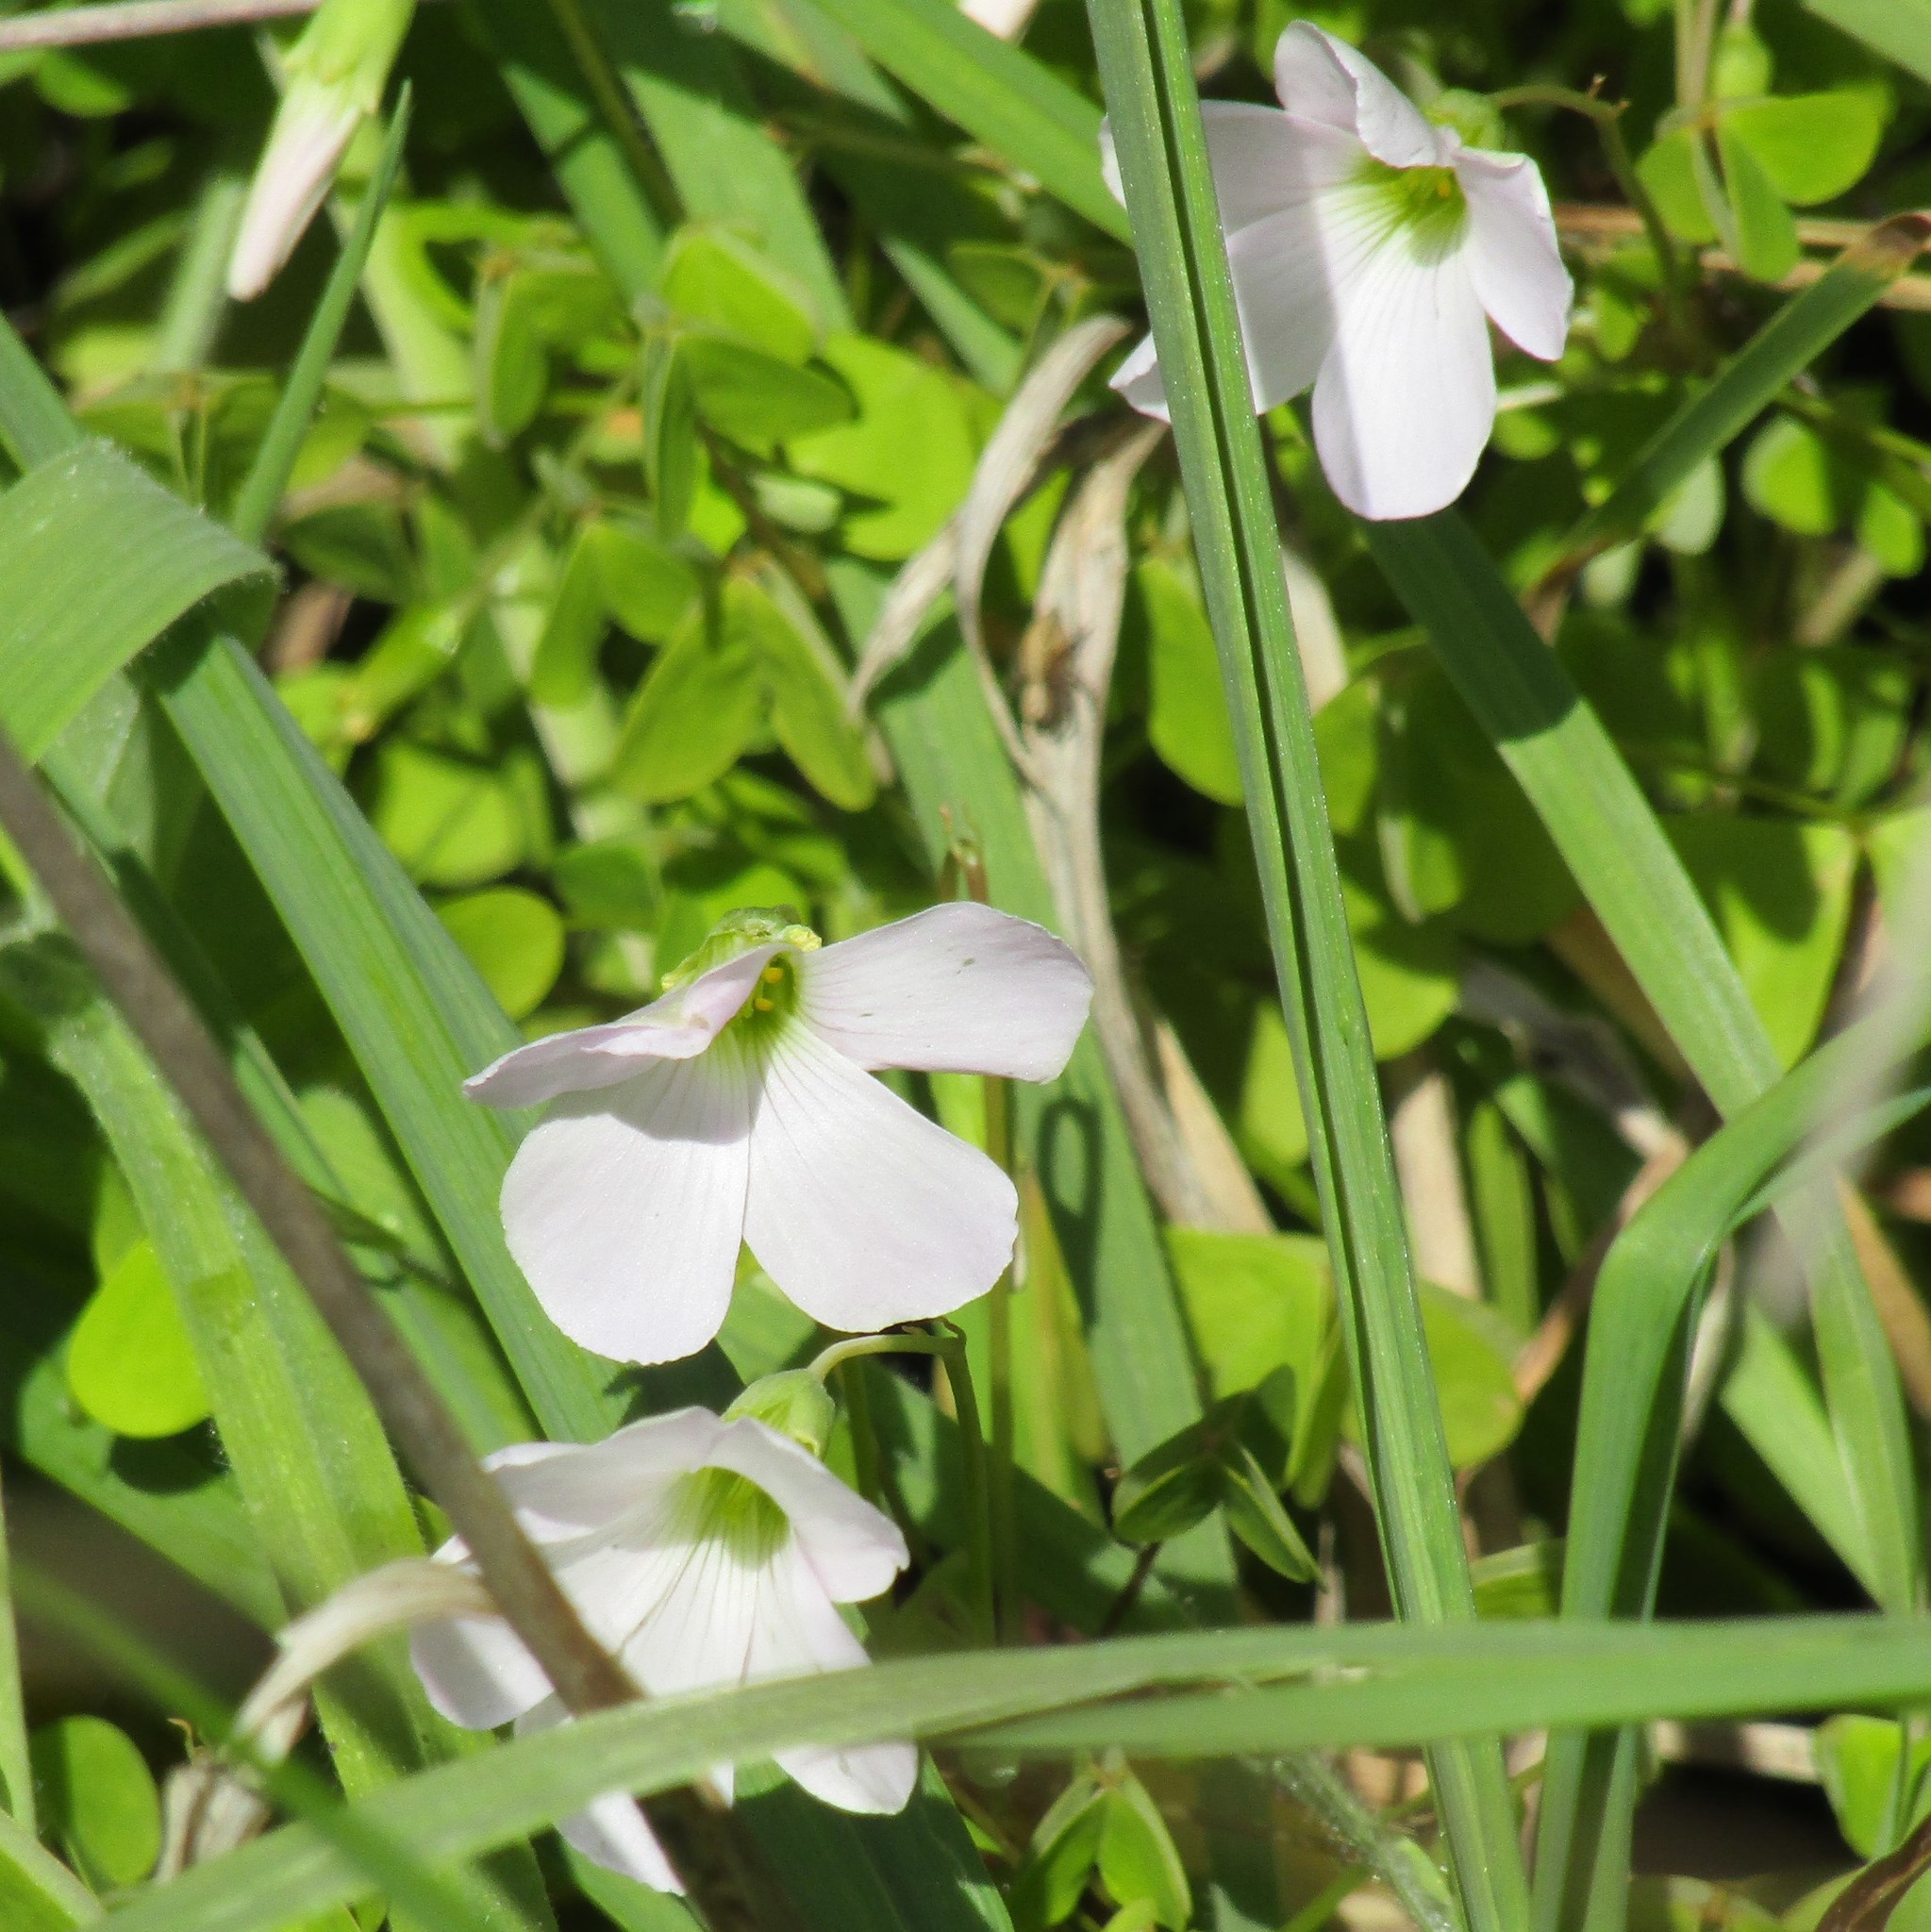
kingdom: Plantae
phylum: Tracheophyta
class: Magnoliopsida
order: Oxalidales
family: Oxalidaceae
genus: Oxalis
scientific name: Oxalis incarnata
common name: Pale pink-sorrel
